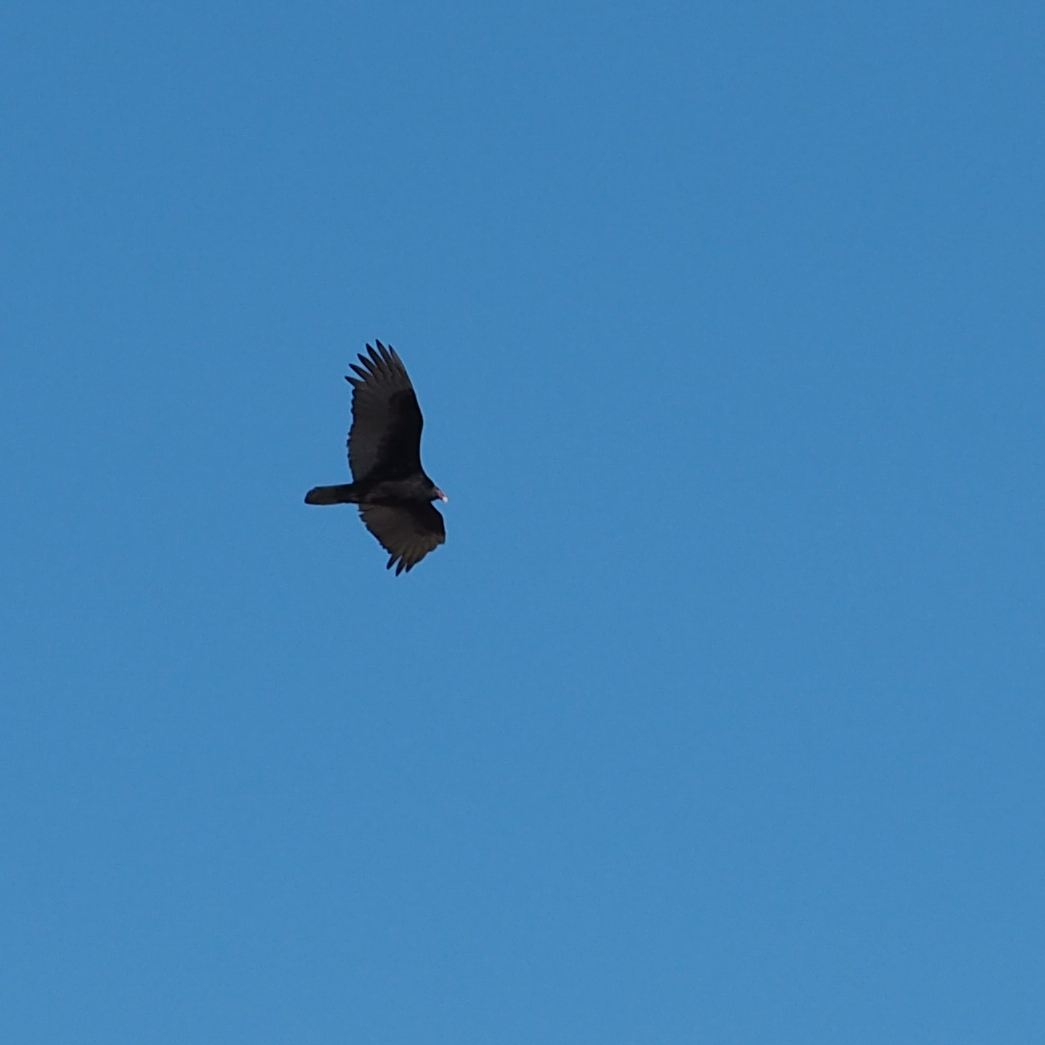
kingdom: Animalia
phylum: Chordata
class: Aves
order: Accipitriformes
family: Cathartidae
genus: Cathartes
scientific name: Cathartes aura
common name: Turkey vulture
